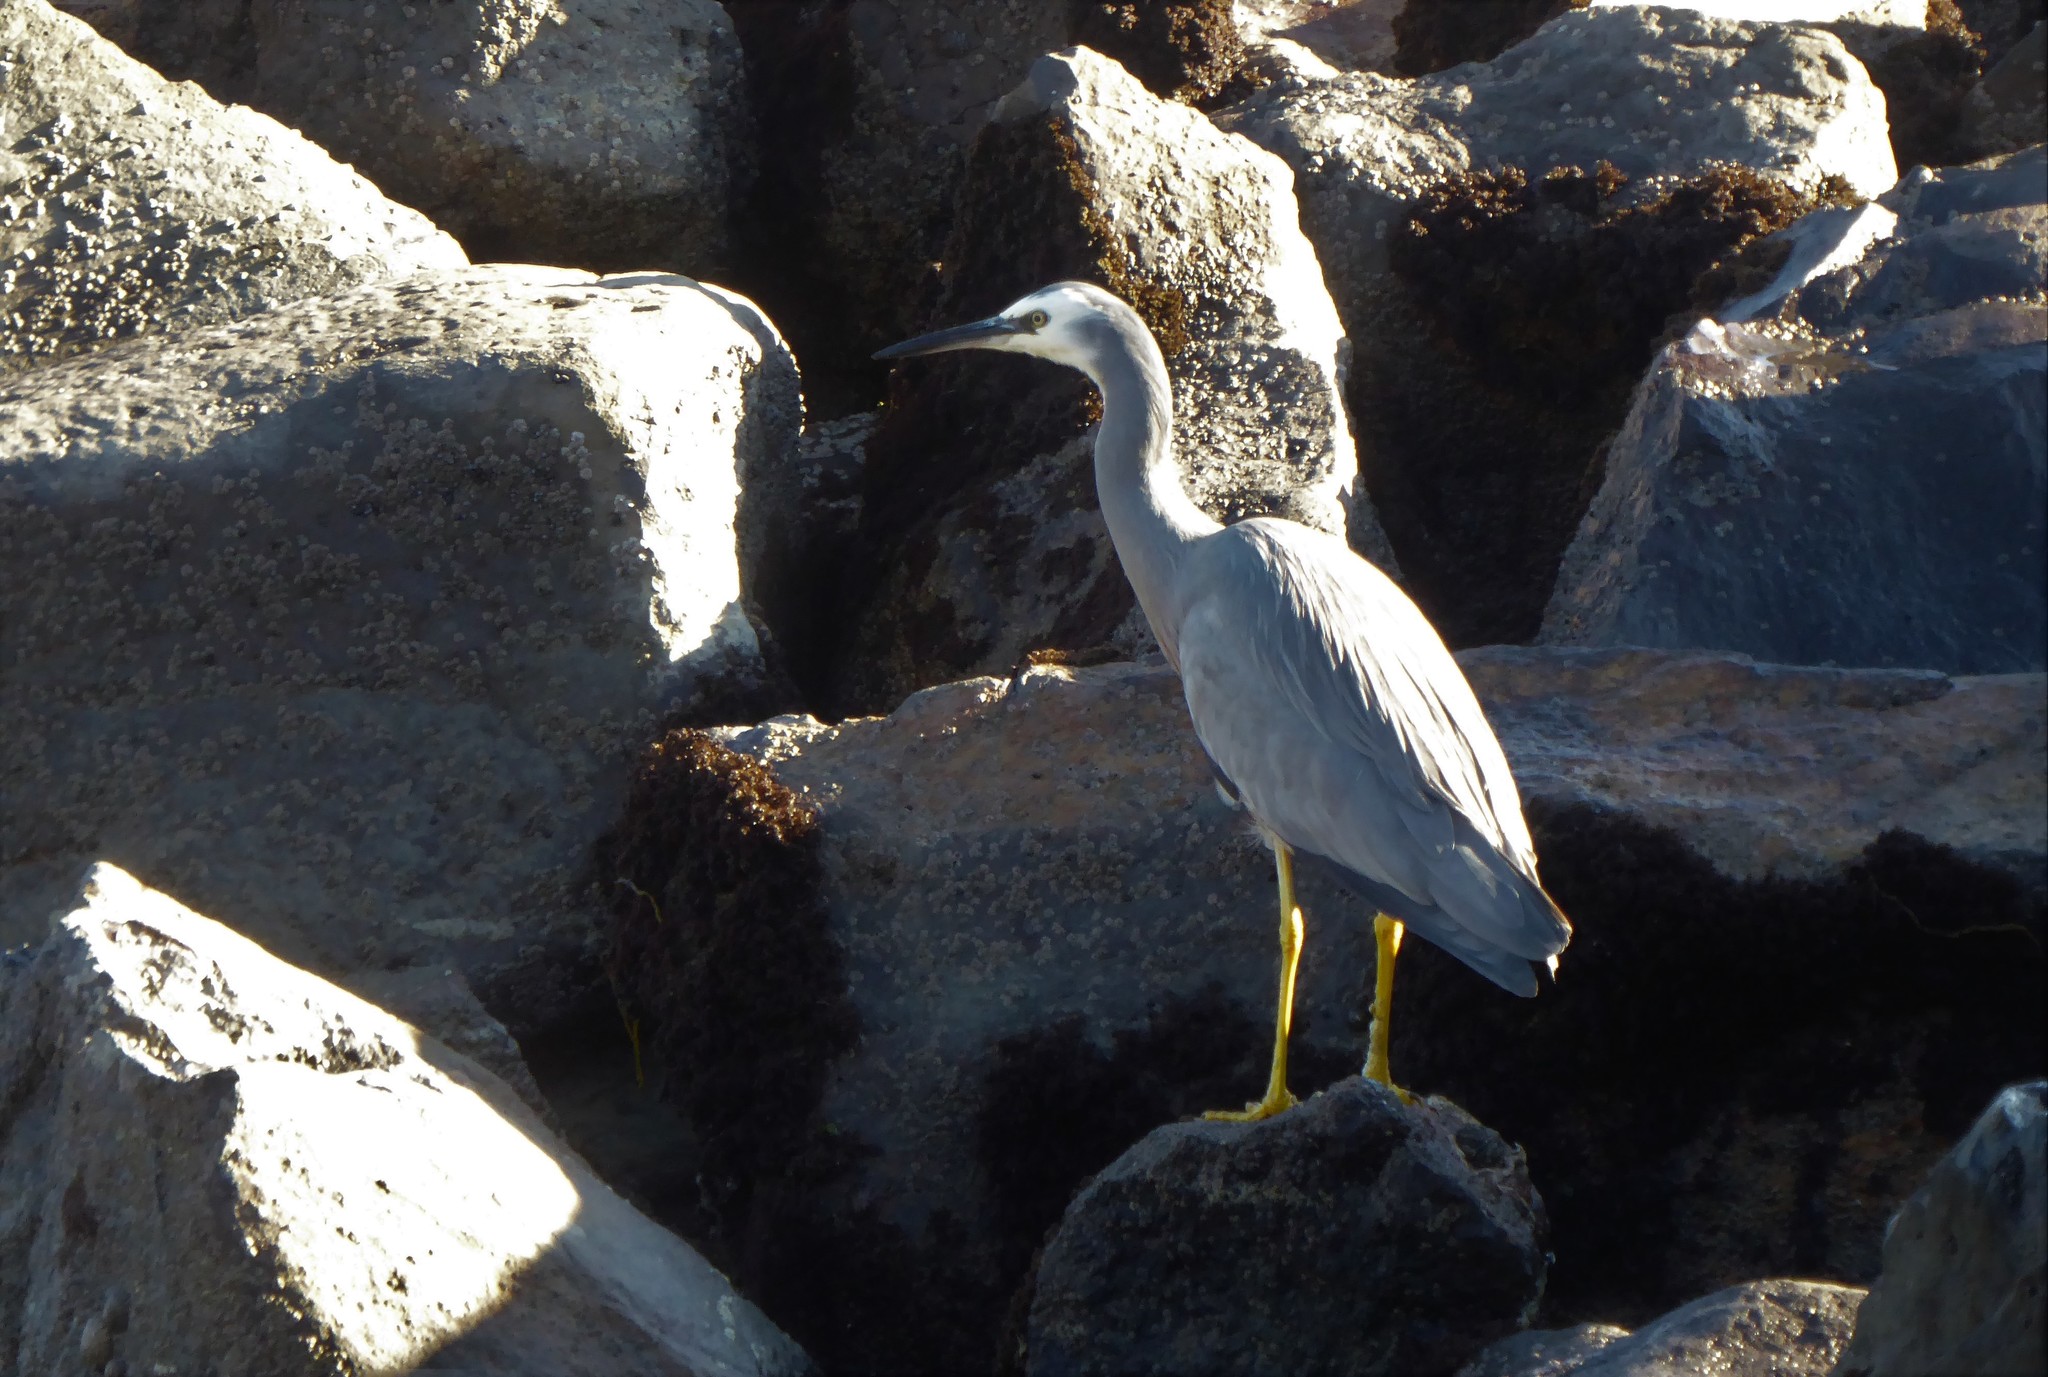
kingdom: Animalia
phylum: Chordata
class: Aves
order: Pelecaniformes
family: Ardeidae
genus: Egretta
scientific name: Egretta novaehollandiae
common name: White-faced heron
